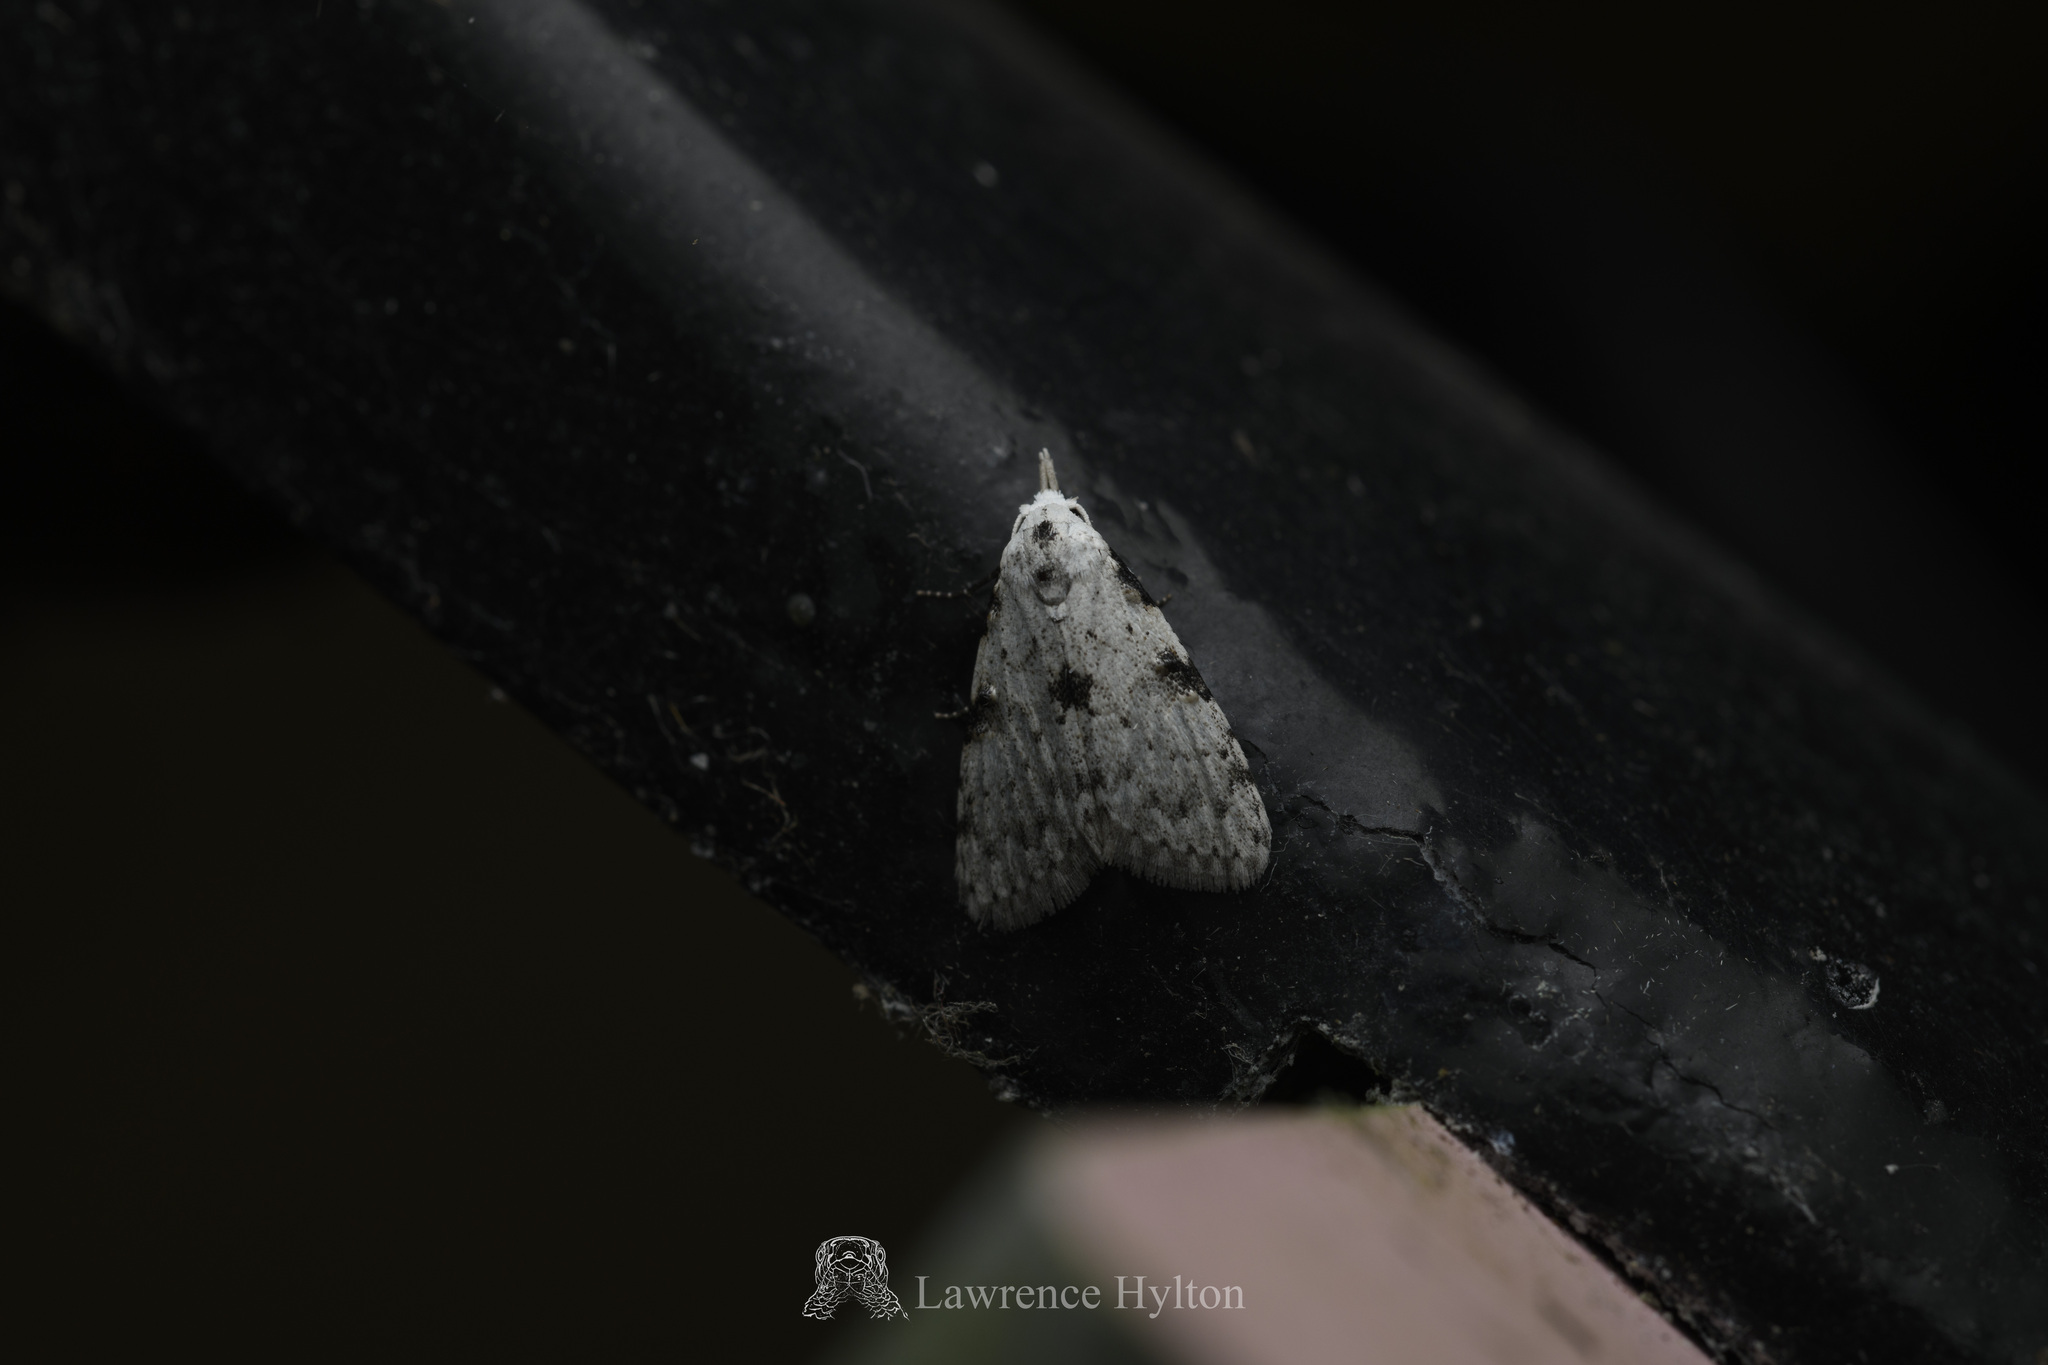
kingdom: Animalia
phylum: Arthropoda
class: Insecta
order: Lepidoptera
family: Nolidae
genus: Manoba
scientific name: Manoba tristicta
